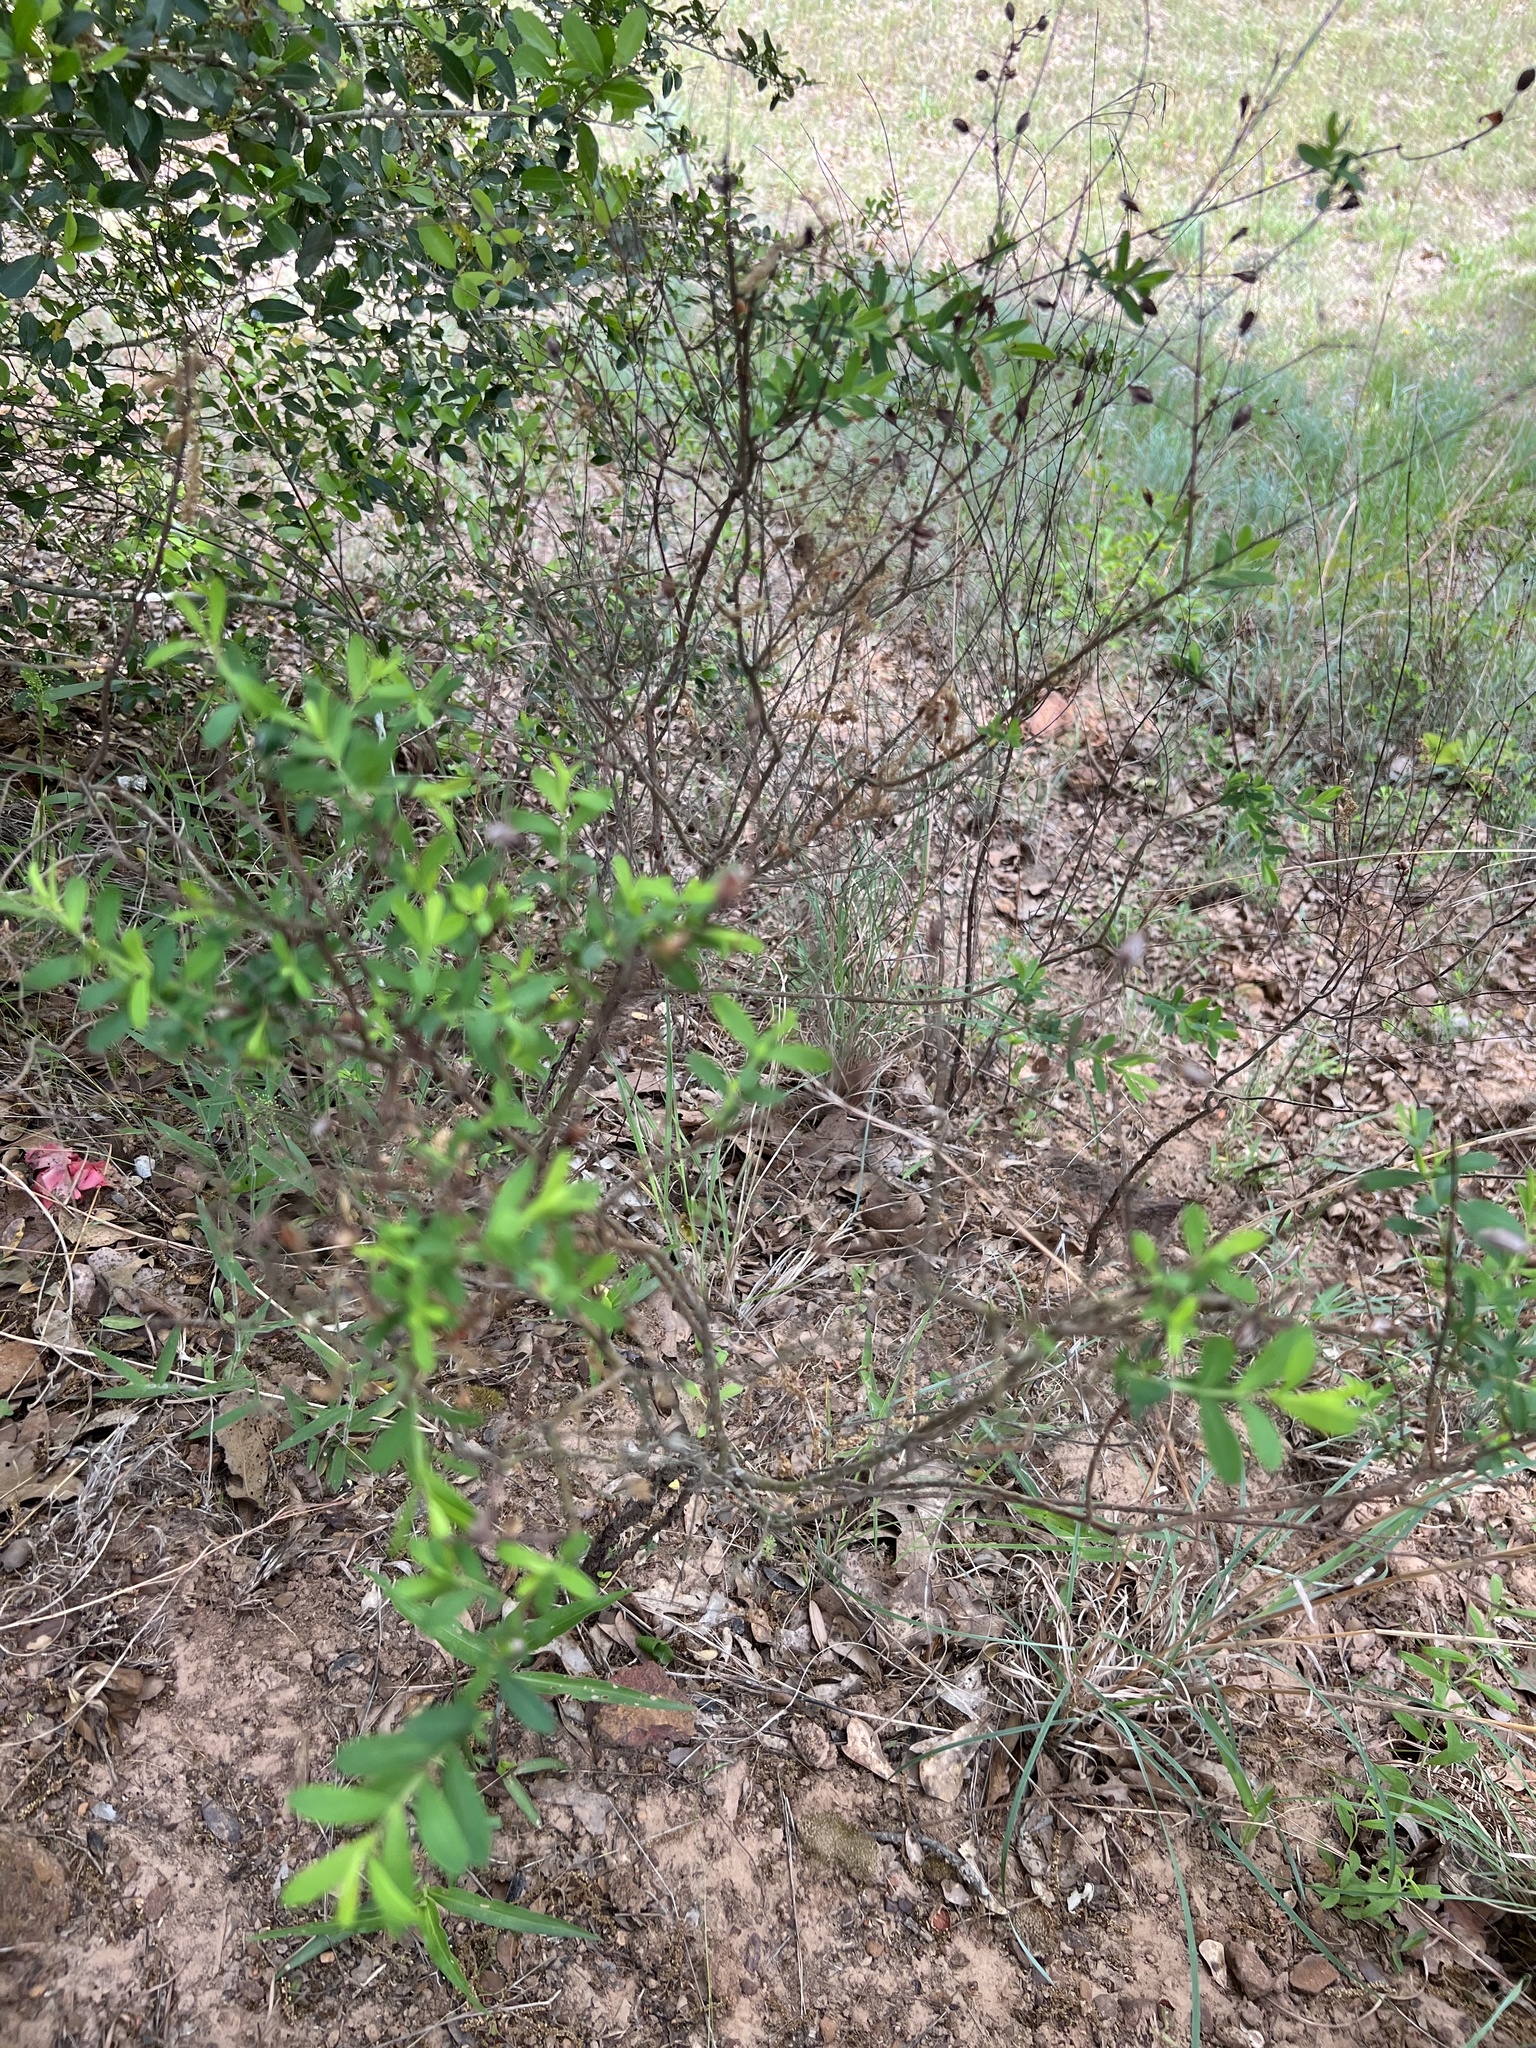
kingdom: Plantae
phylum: Tracheophyta
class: Magnoliopsida
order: Malpighiales
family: Hypericaceae
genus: Hypericum
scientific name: Hypericum hypericoides
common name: St. andrew's cross
